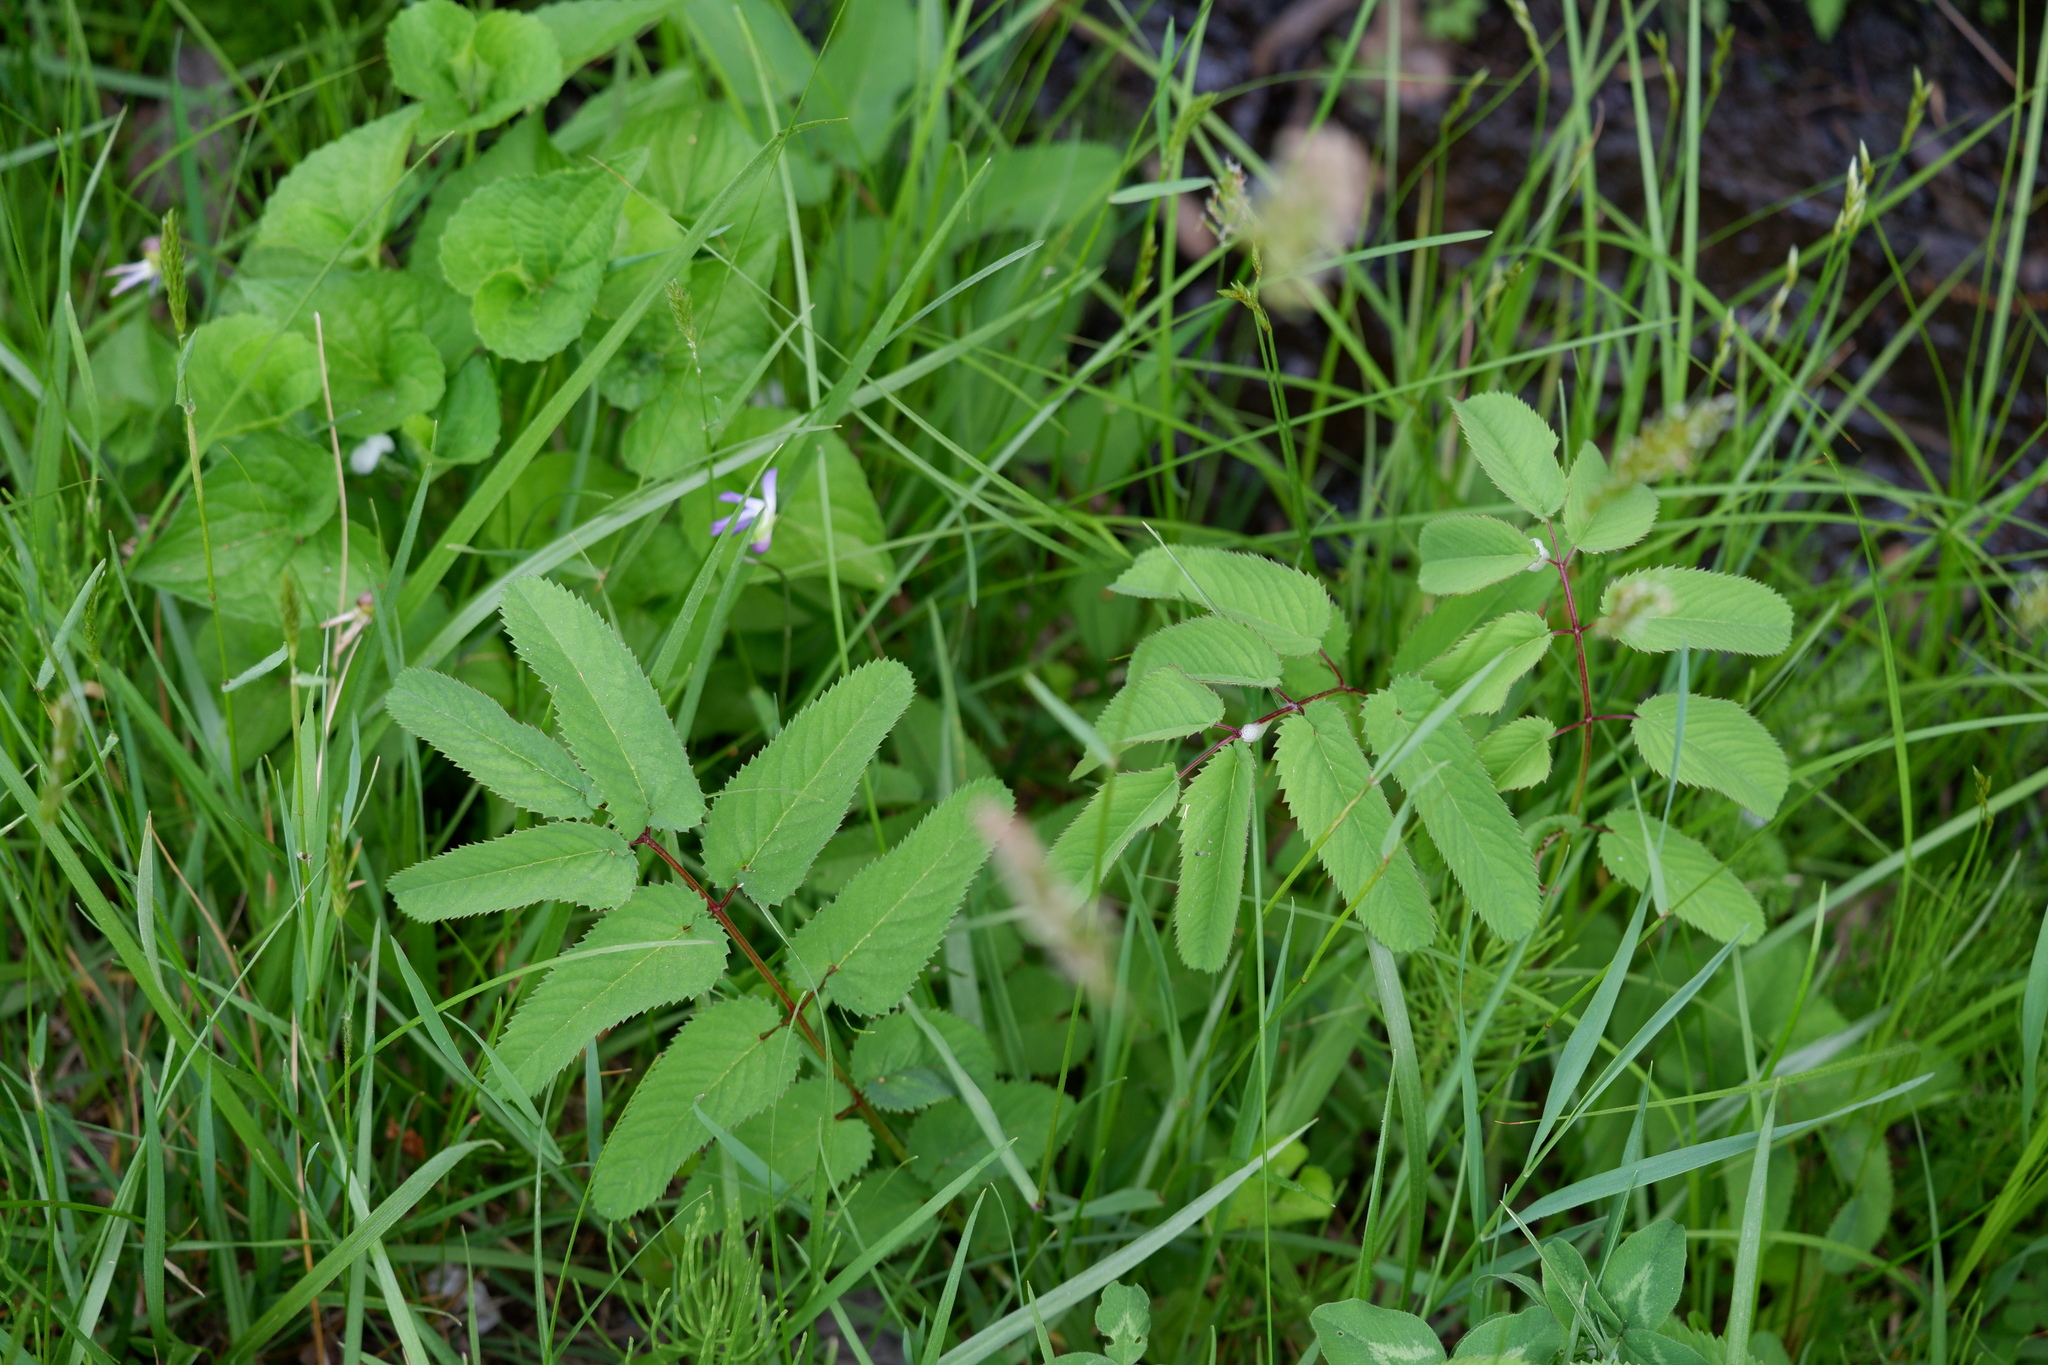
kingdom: Plantae
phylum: Tracheophyta
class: Magnoliopsida
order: Rosales
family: Rosaceae
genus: Sanguisorba
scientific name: Sanguisorba canadensis
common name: White burnet
